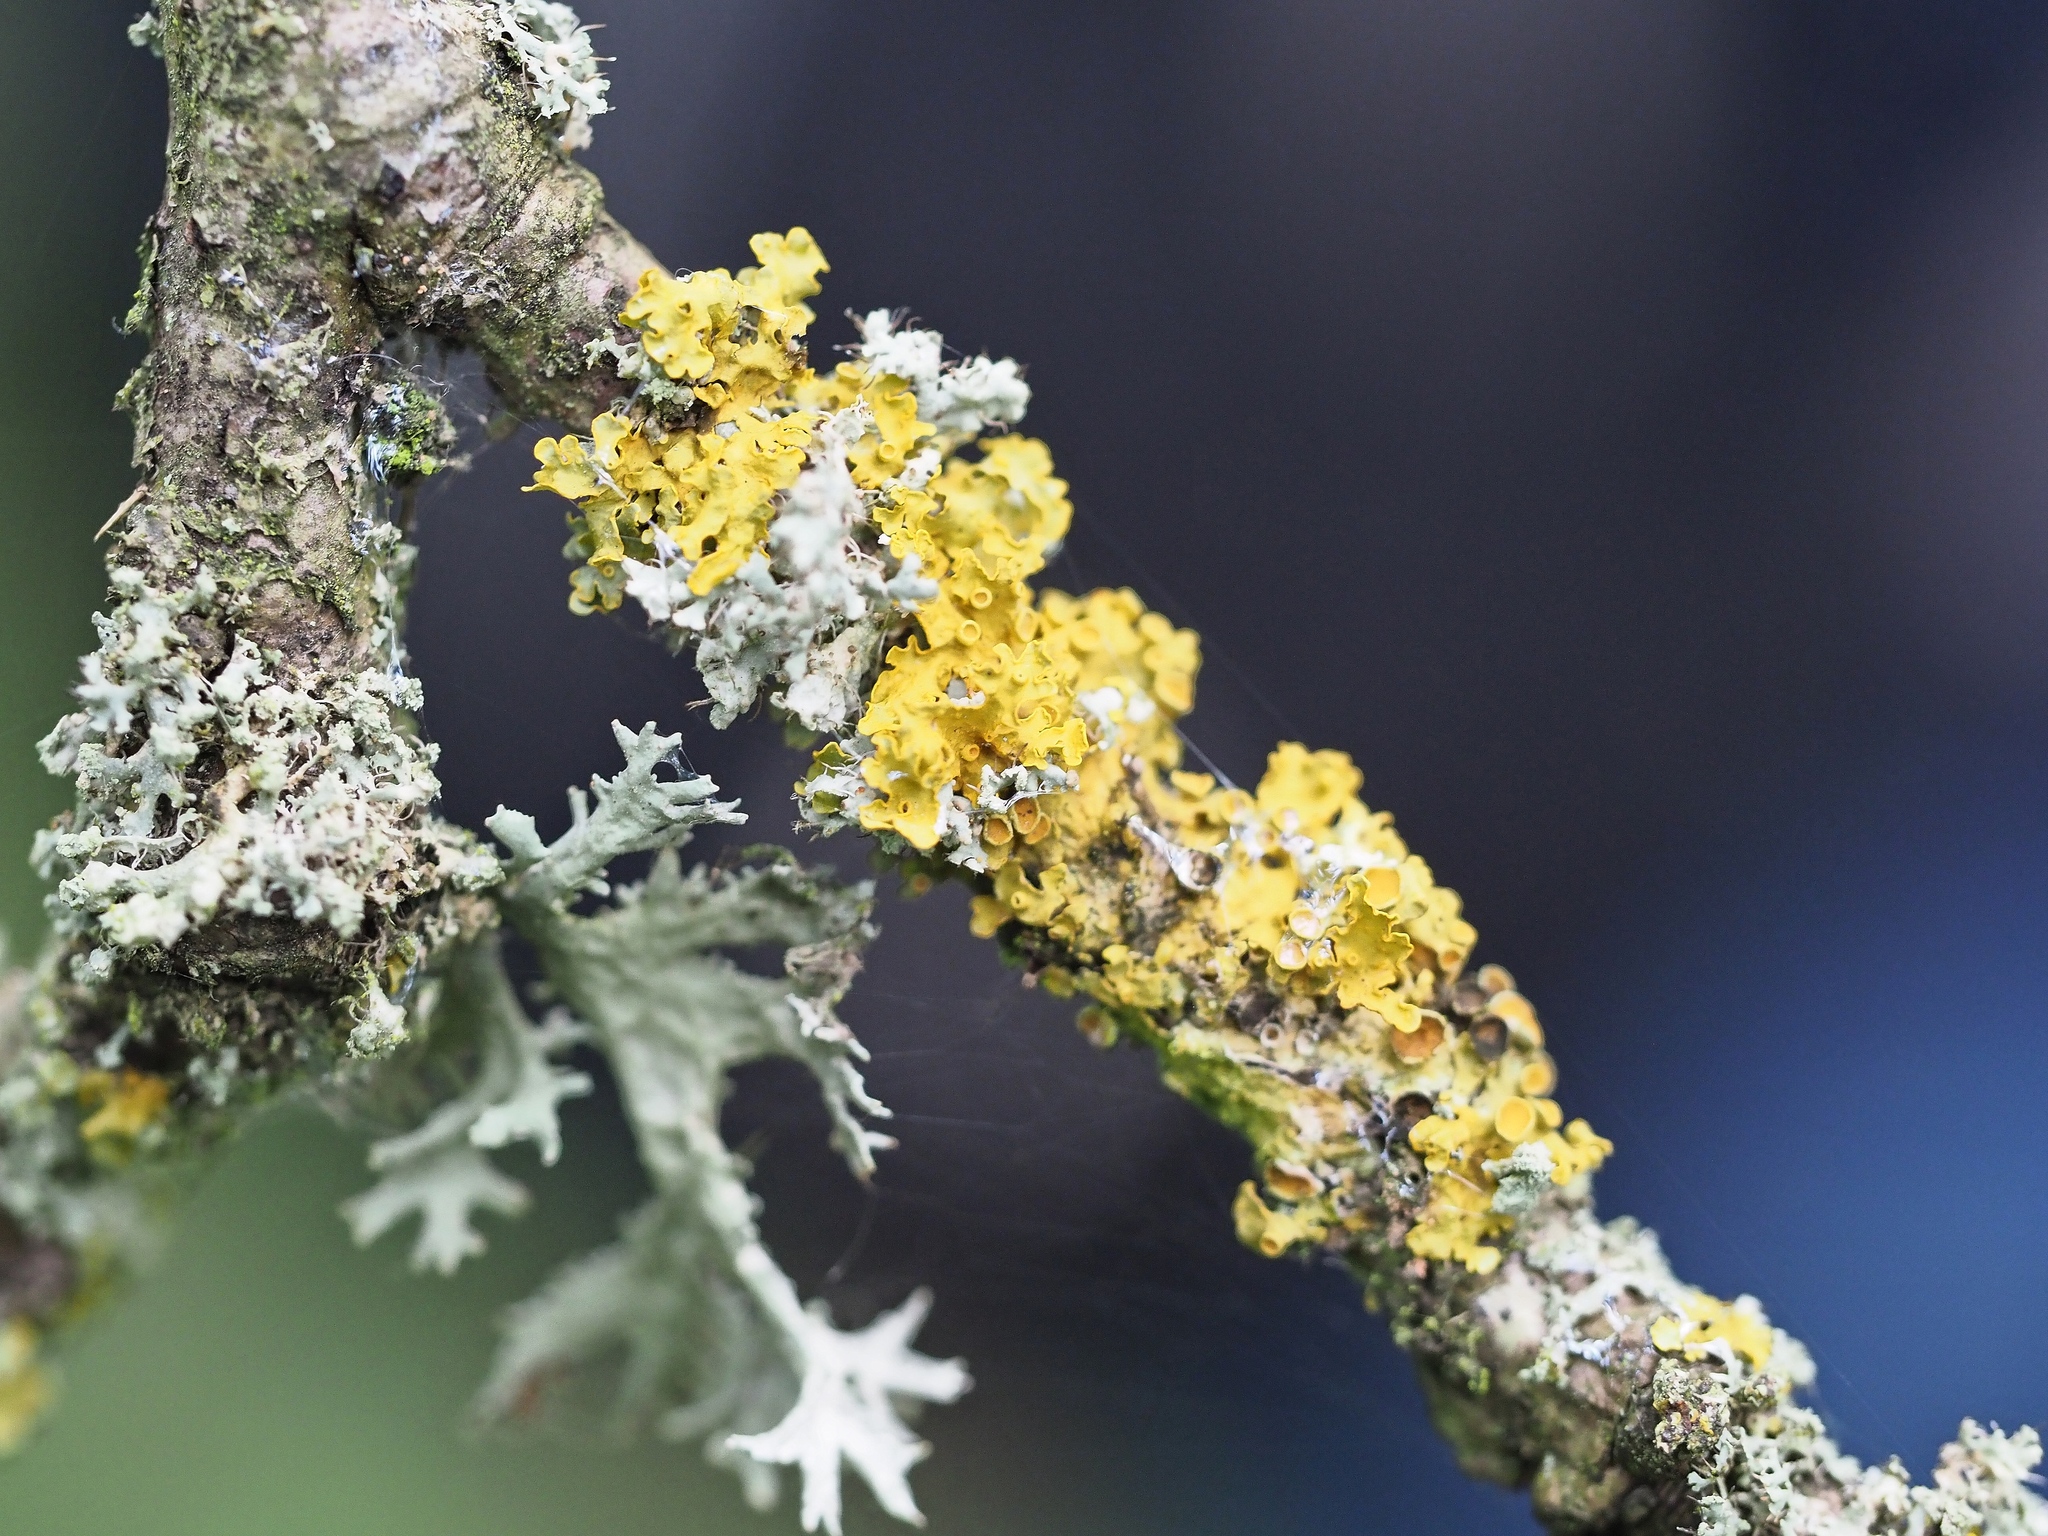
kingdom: Fungi
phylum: Ascomycota
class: Lecanoromycetes
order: Teloschistales
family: Teloschistaceae
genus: Xanthoria
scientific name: Xanthoria parietina
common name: Common orange lichen
